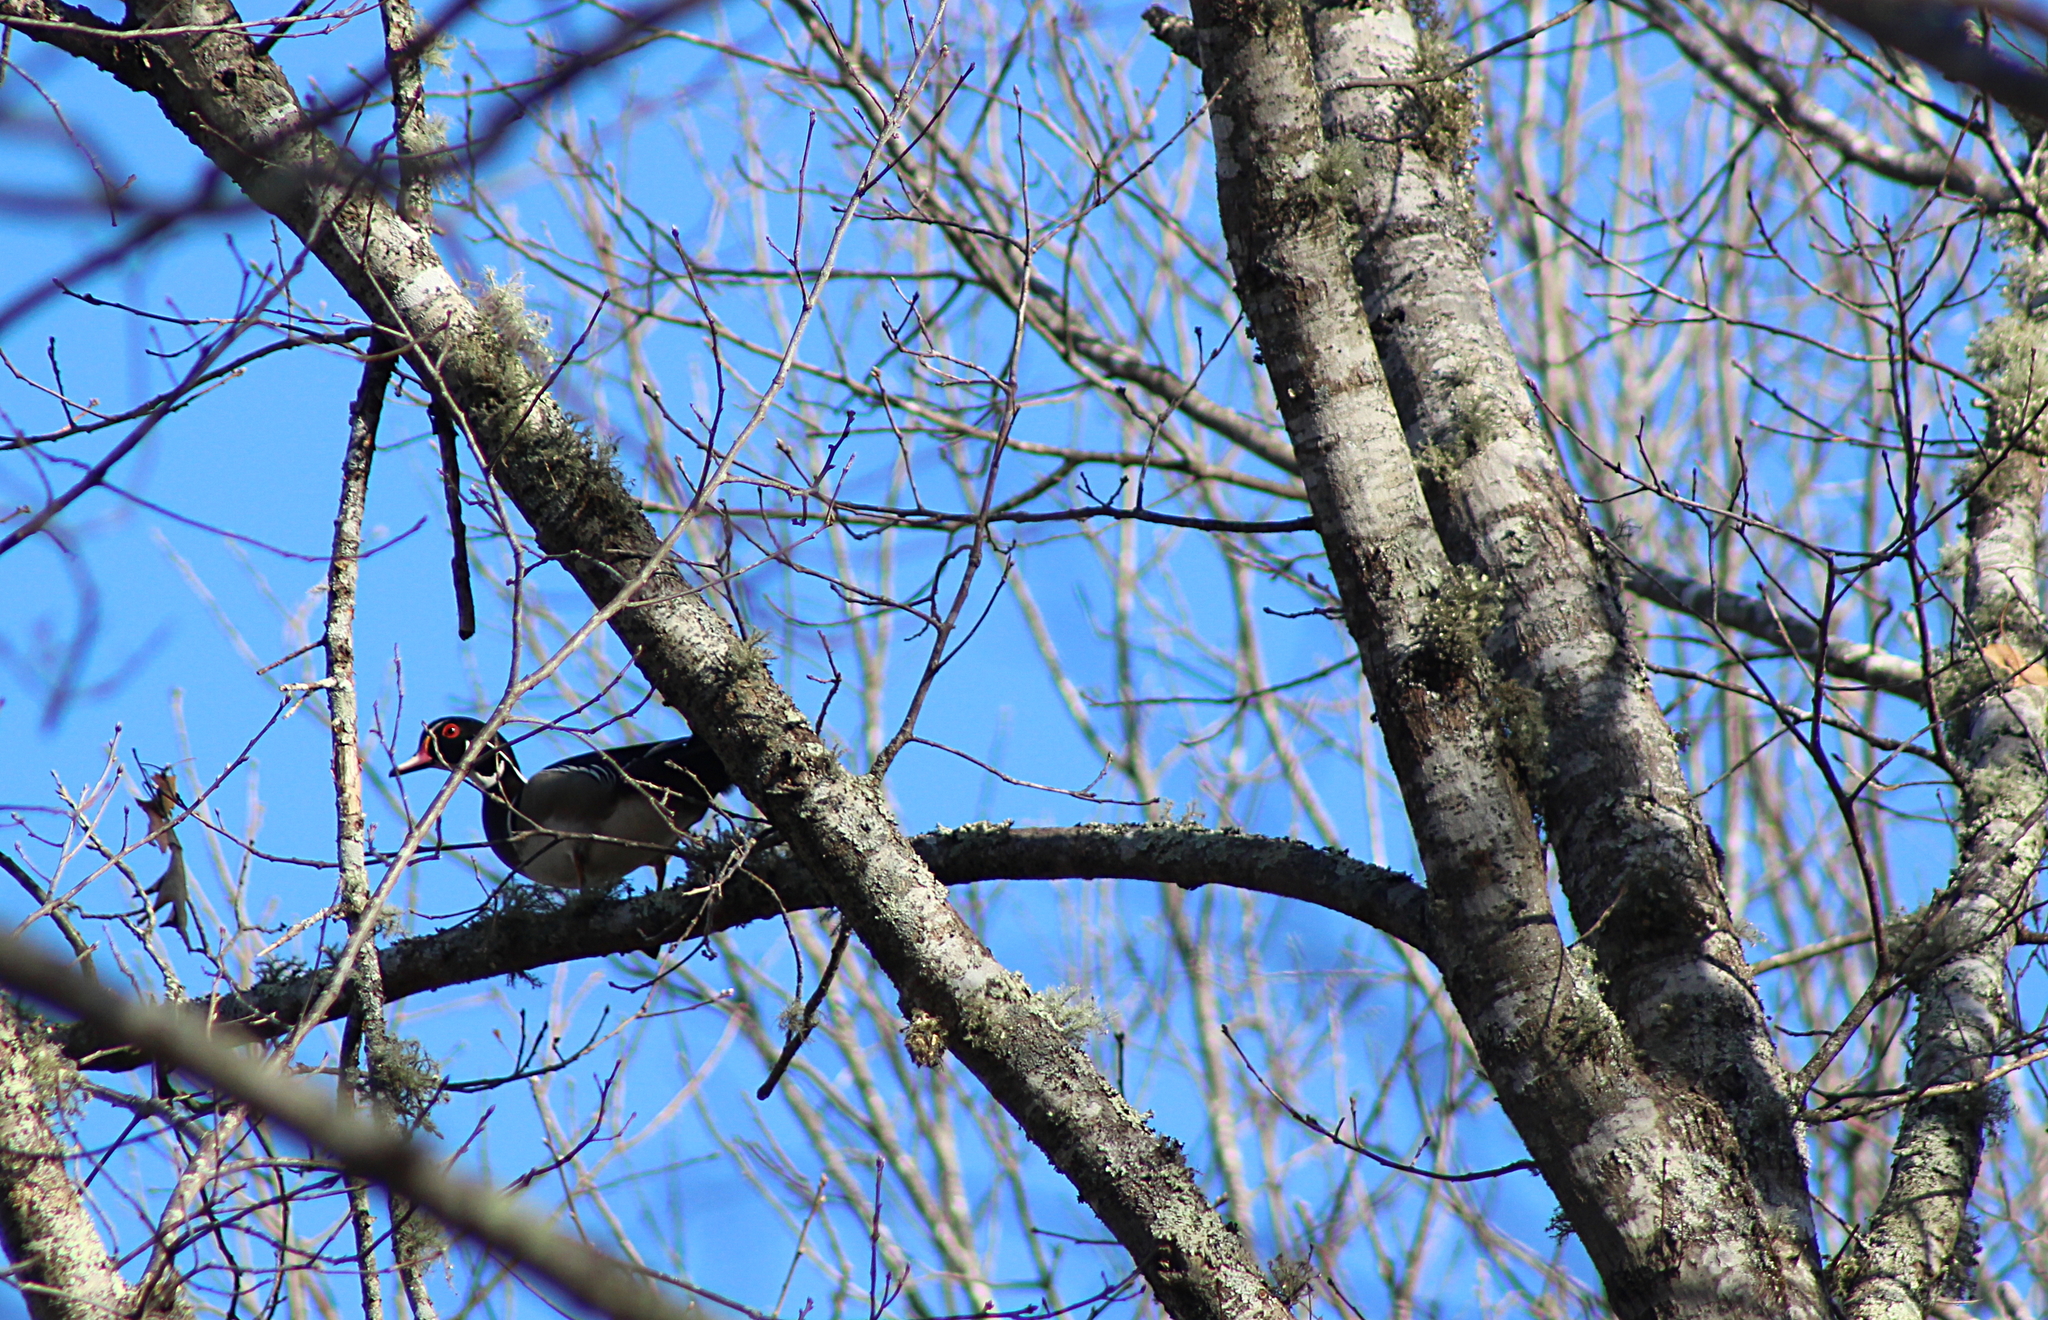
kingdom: Animalia
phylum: Chordata
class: Aves
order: Anseriformes
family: Anatidae
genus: Aix
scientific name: Aix sponsa
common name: Wood duck
